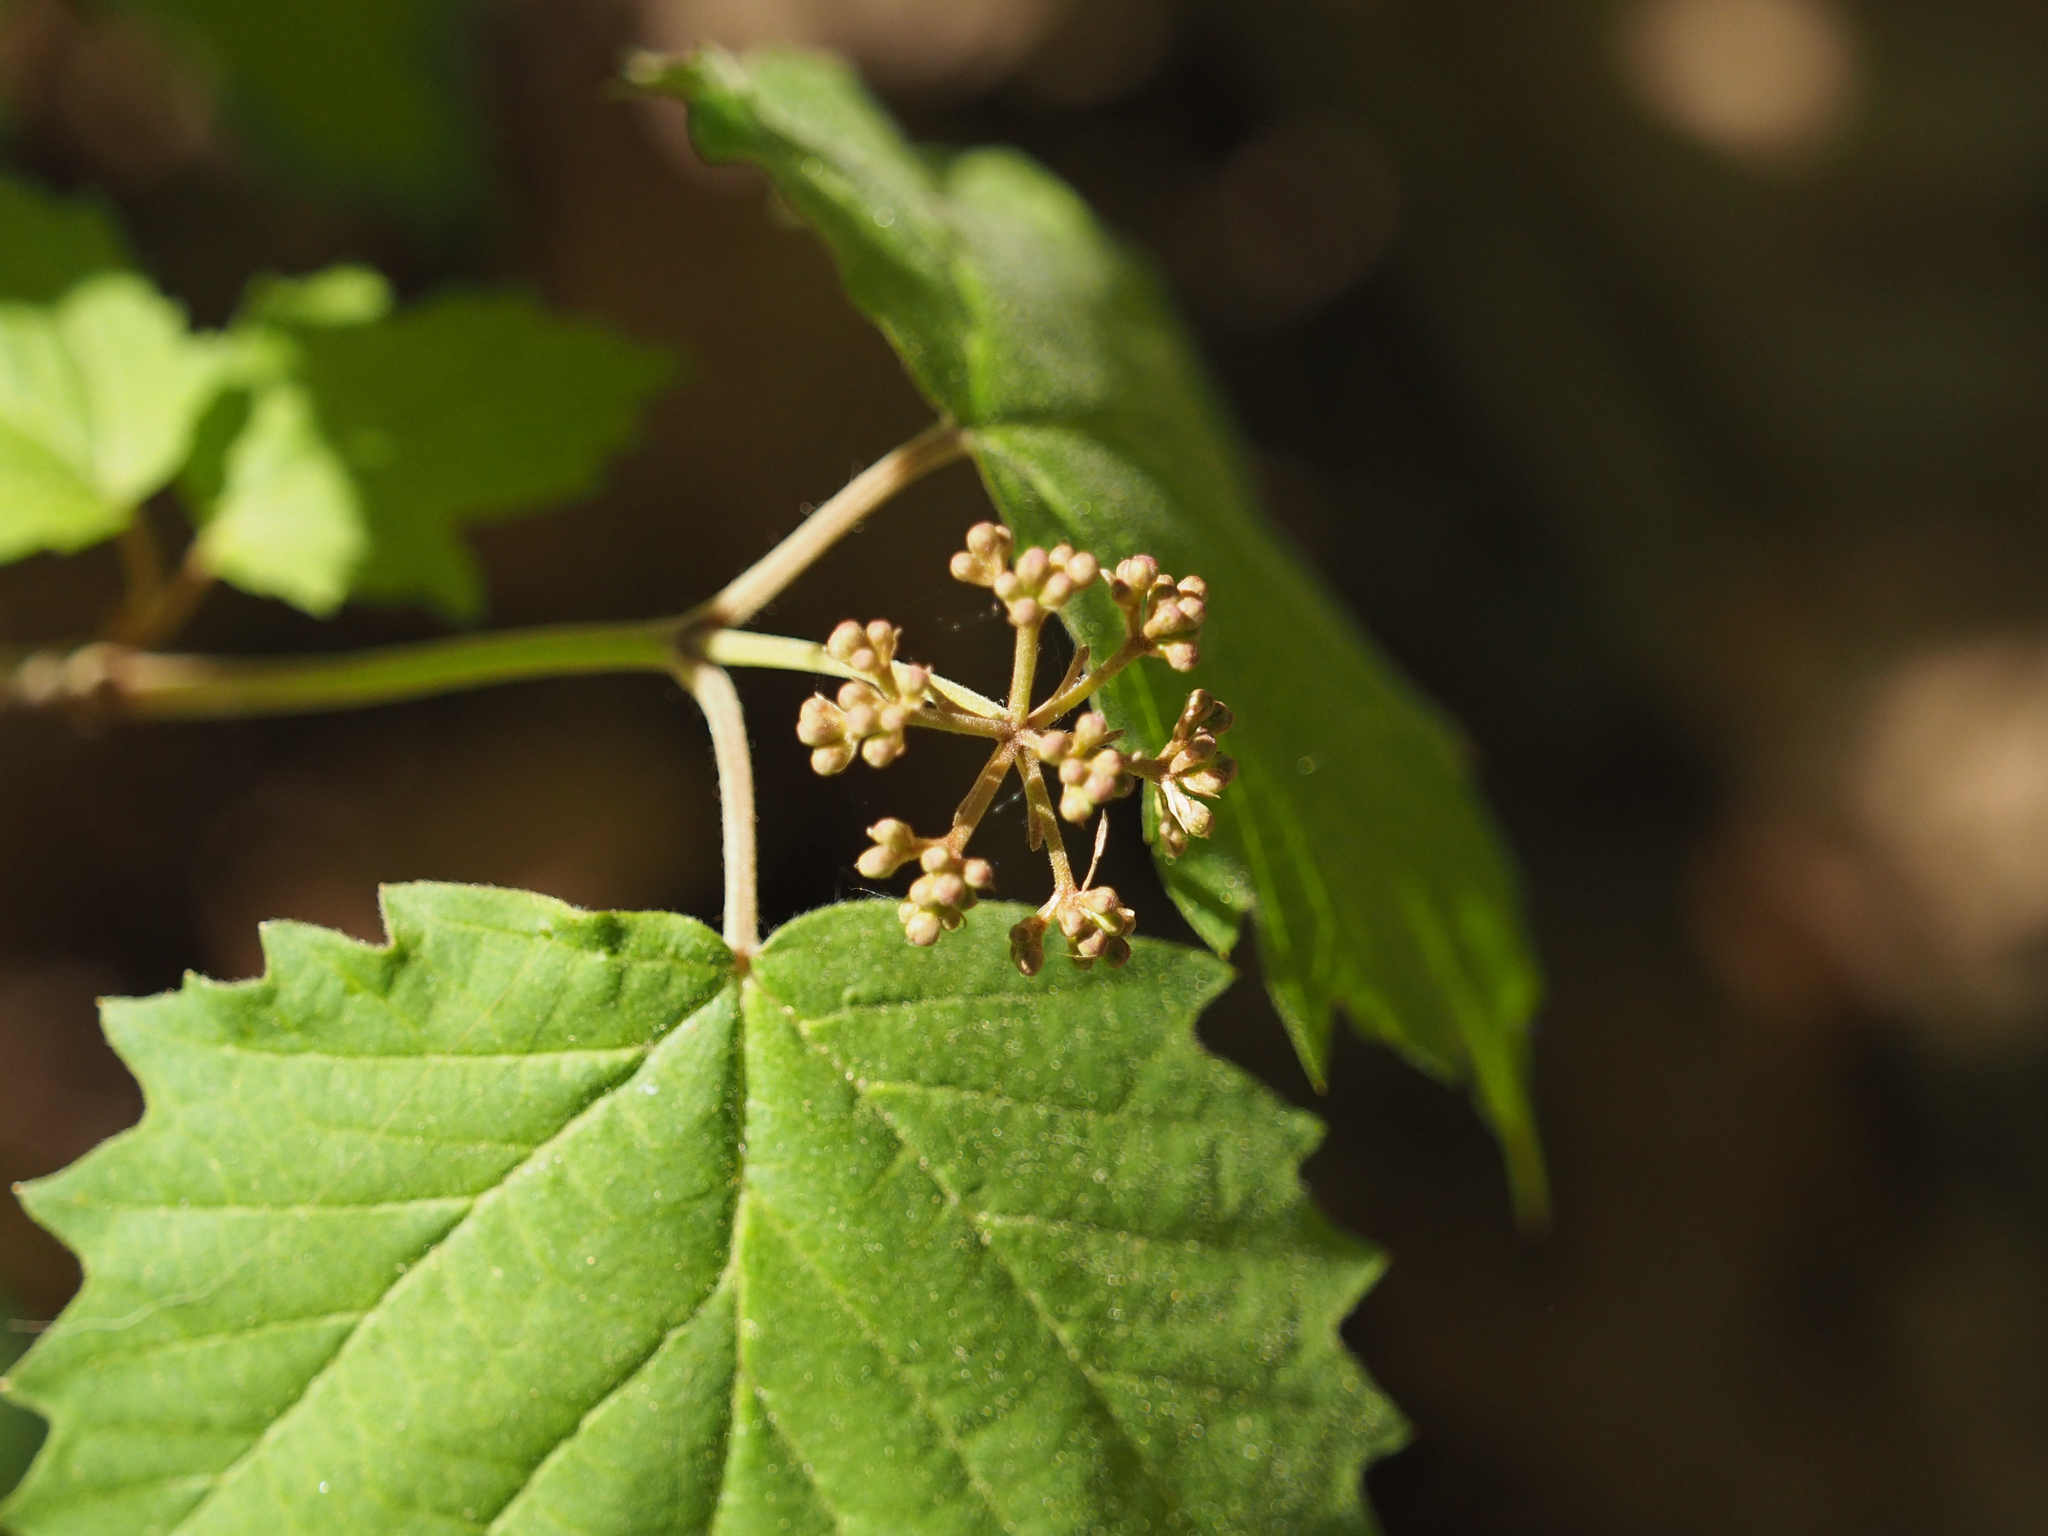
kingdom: Plantae
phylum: Tracheophyta
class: Magnoliopsida
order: Dipsacales
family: Viburnaceae
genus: Viburnum
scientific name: Viburnum acerifolium
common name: Dockmackie
